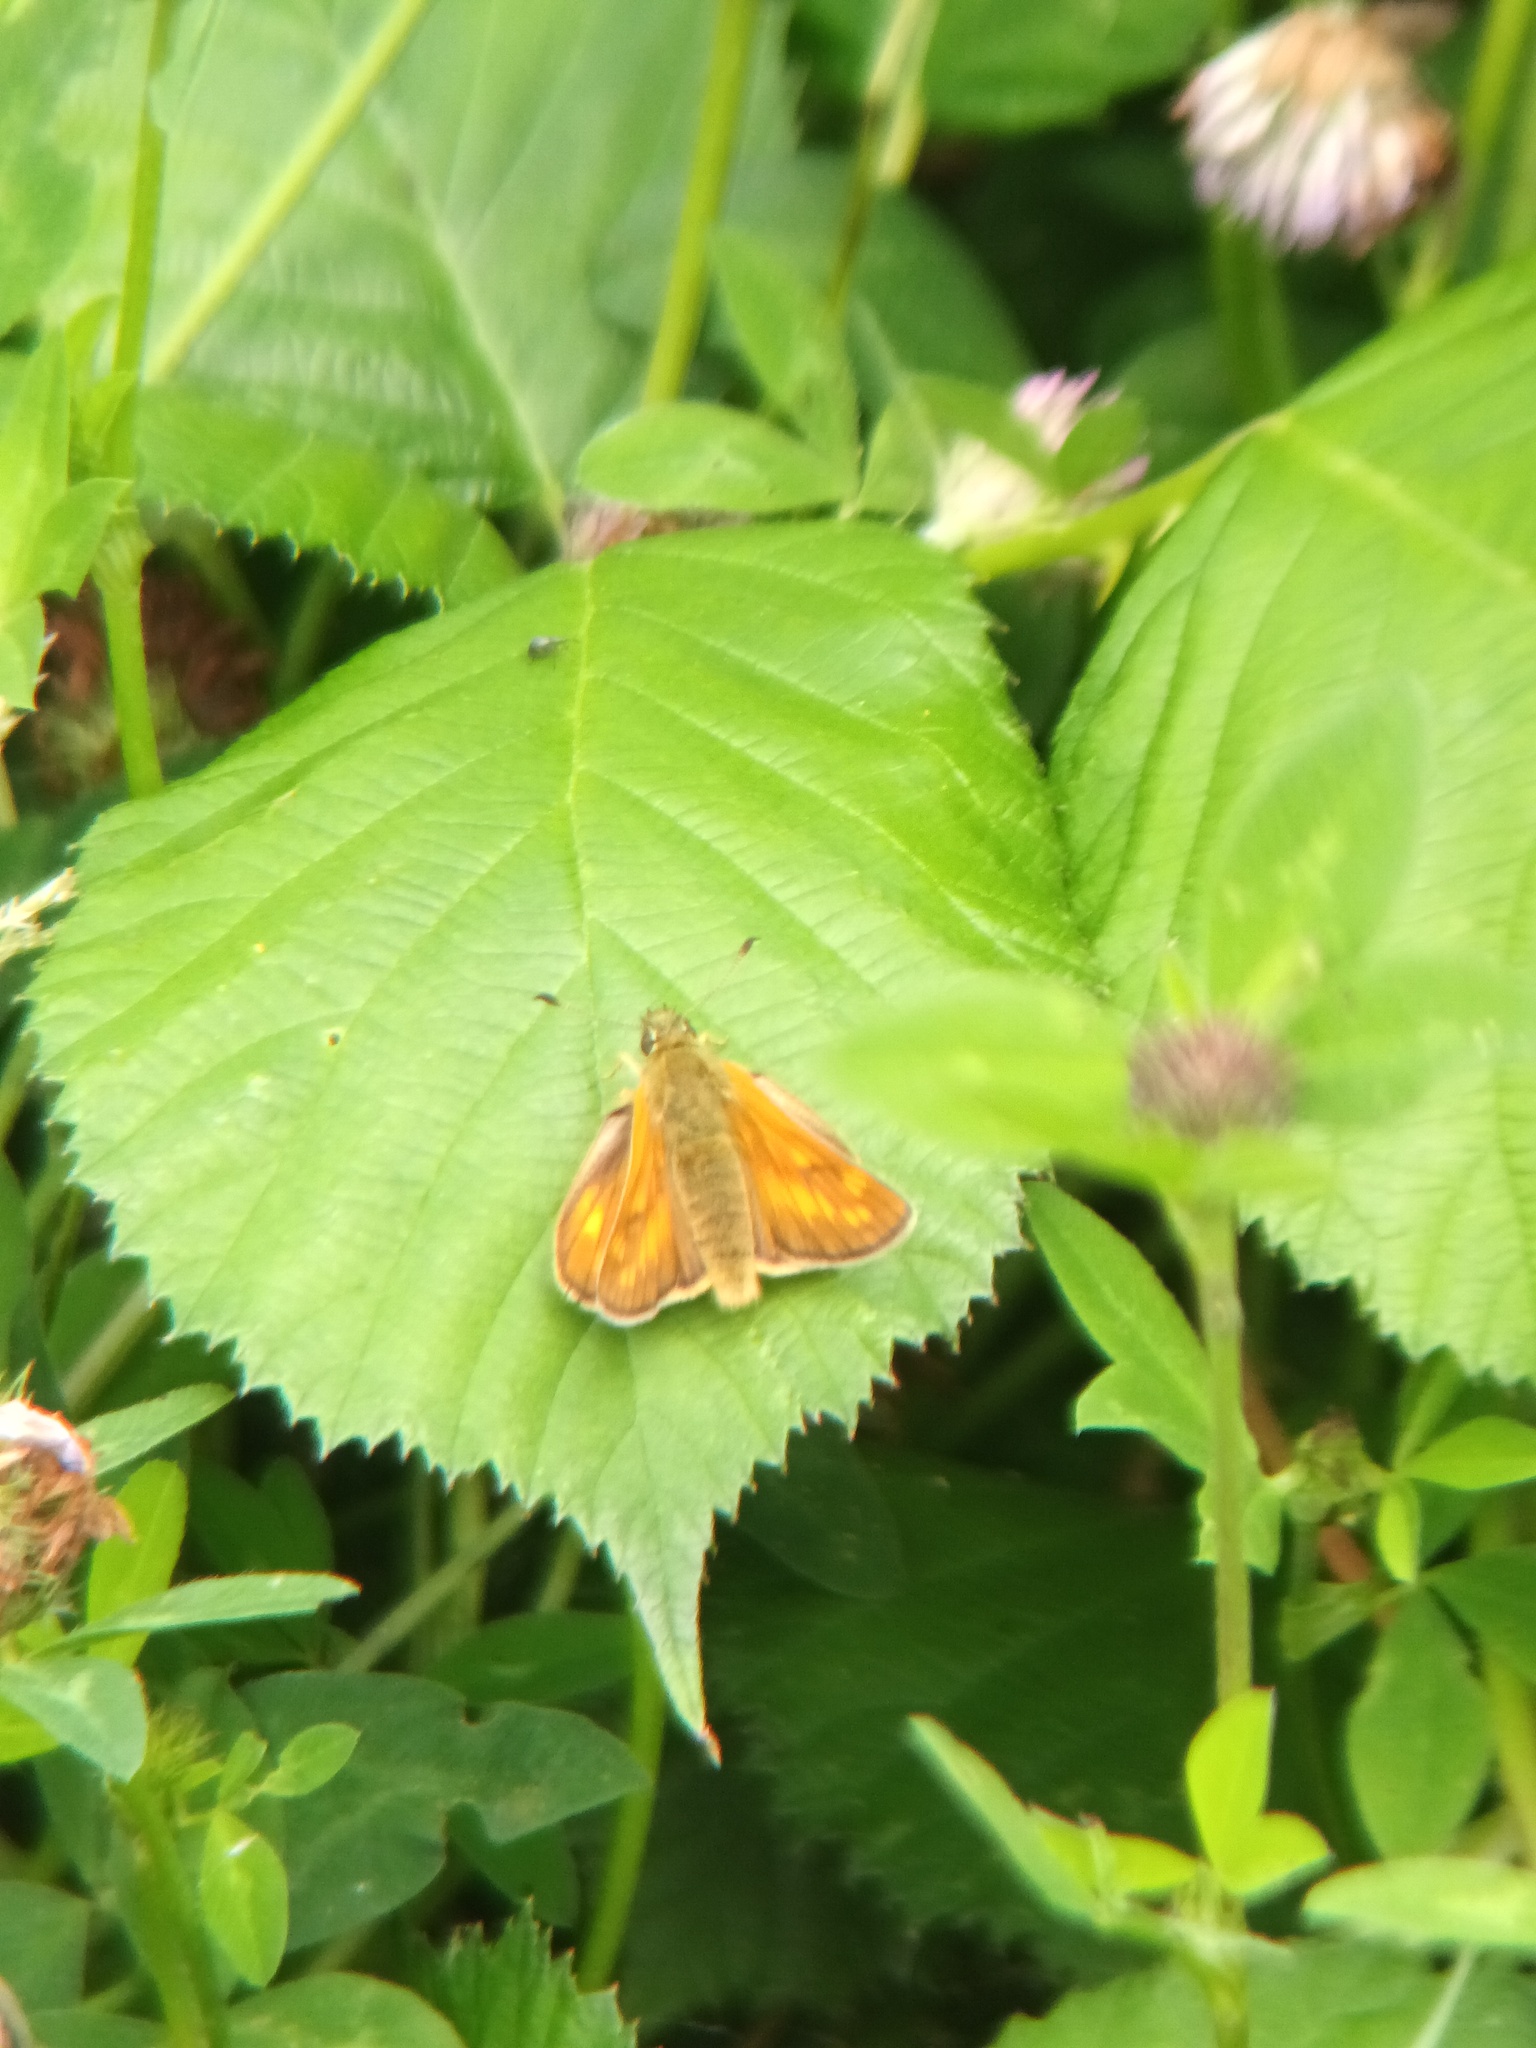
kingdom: Animalia
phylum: Arthropoda
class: Insecta
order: Lepidoptera
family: Hesperiidae
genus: Ochlodes
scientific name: Ochlodes venata
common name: Large skipper
